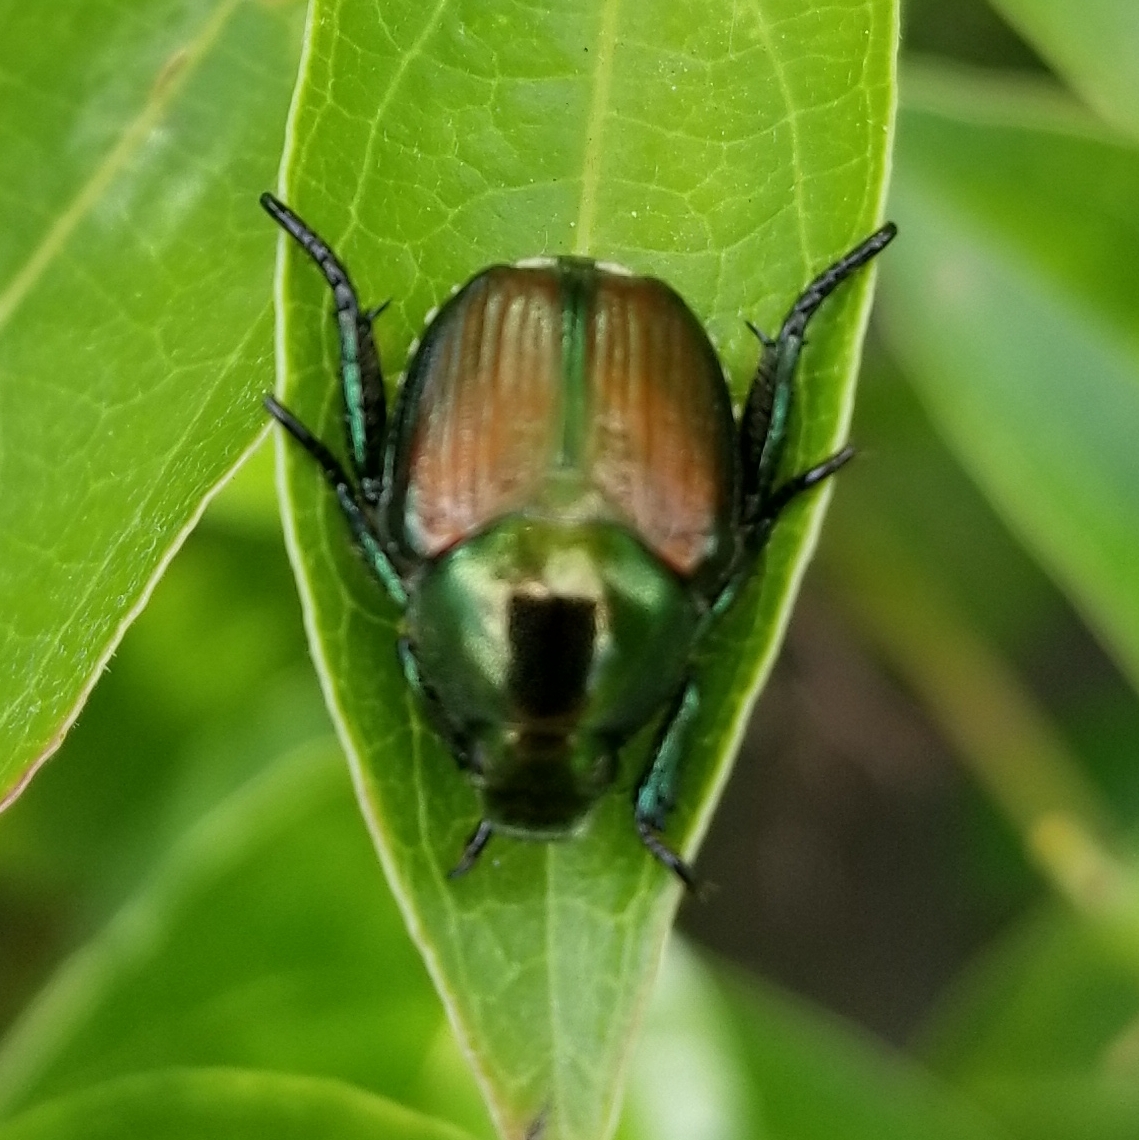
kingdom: Animalia
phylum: Arthropoda
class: Insecta
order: Coleoptera
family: Scarabaeidae
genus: Popillia
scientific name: Popillia japonica
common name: Japanese beetle
